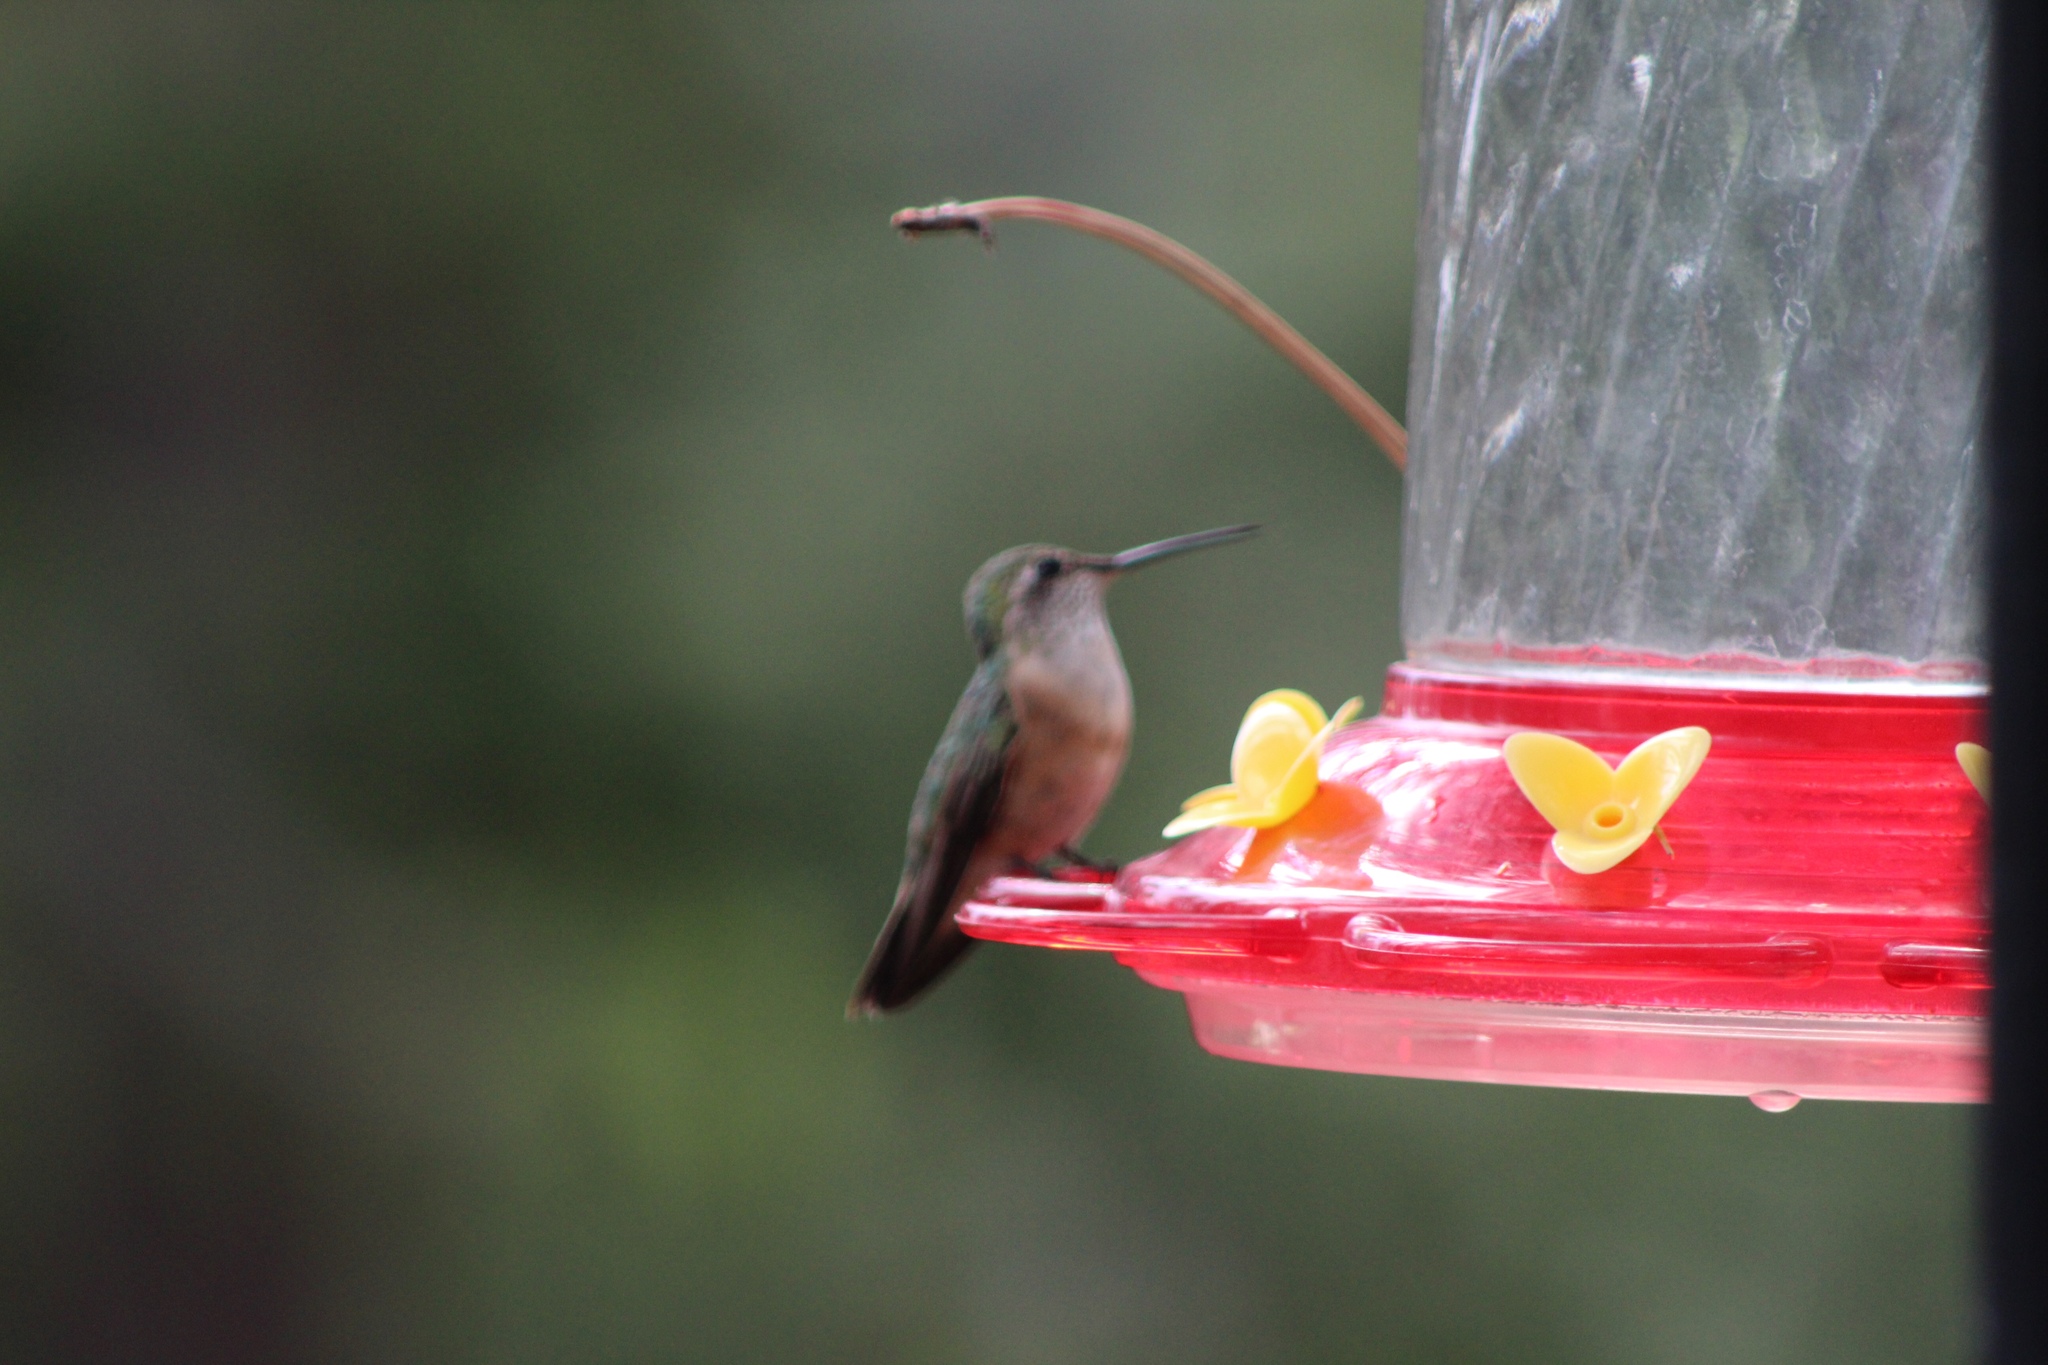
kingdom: Animalia
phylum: Chordata
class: Aves
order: Apodiformes
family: Trochilidae
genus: Selasphorus
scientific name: Selasphorus platycercus
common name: Broad-tailed hummingbird
